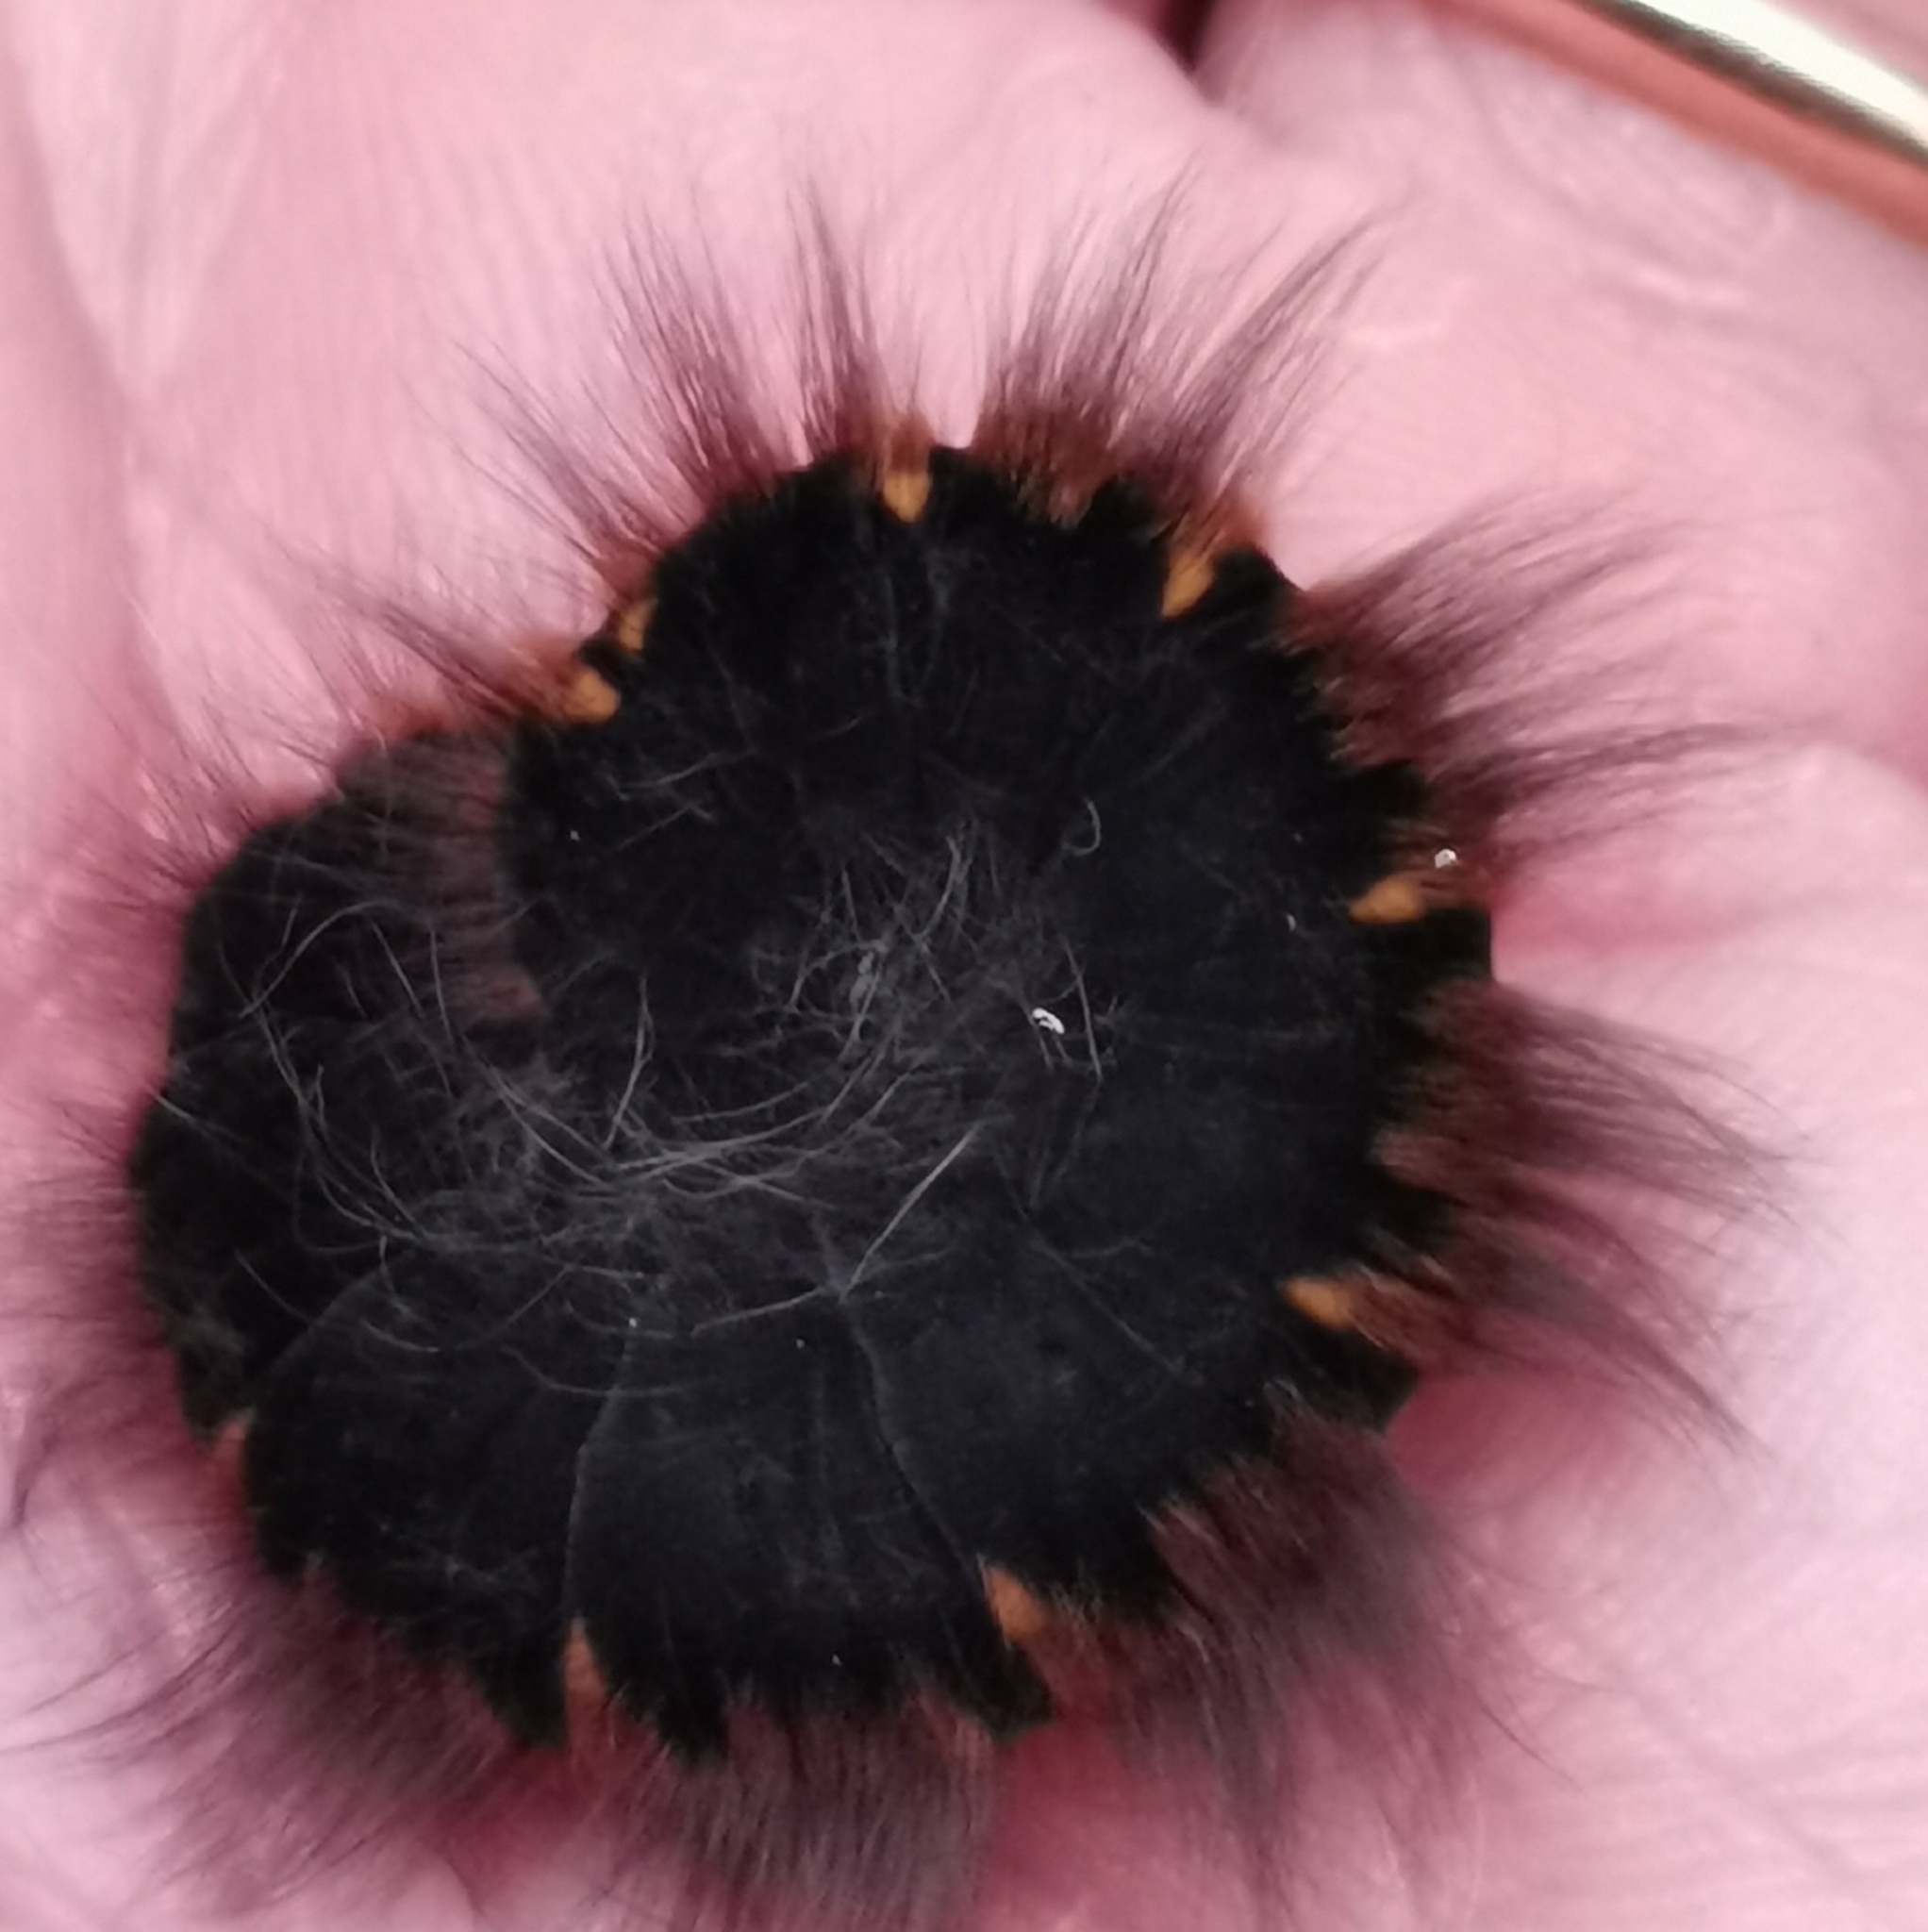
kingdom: Animalia
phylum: Arthropoda
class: Insecta
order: Lepidoptera
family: Lasiocampidae
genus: Macrothylacia
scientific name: Macrothylacia rubi
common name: Fox moth
